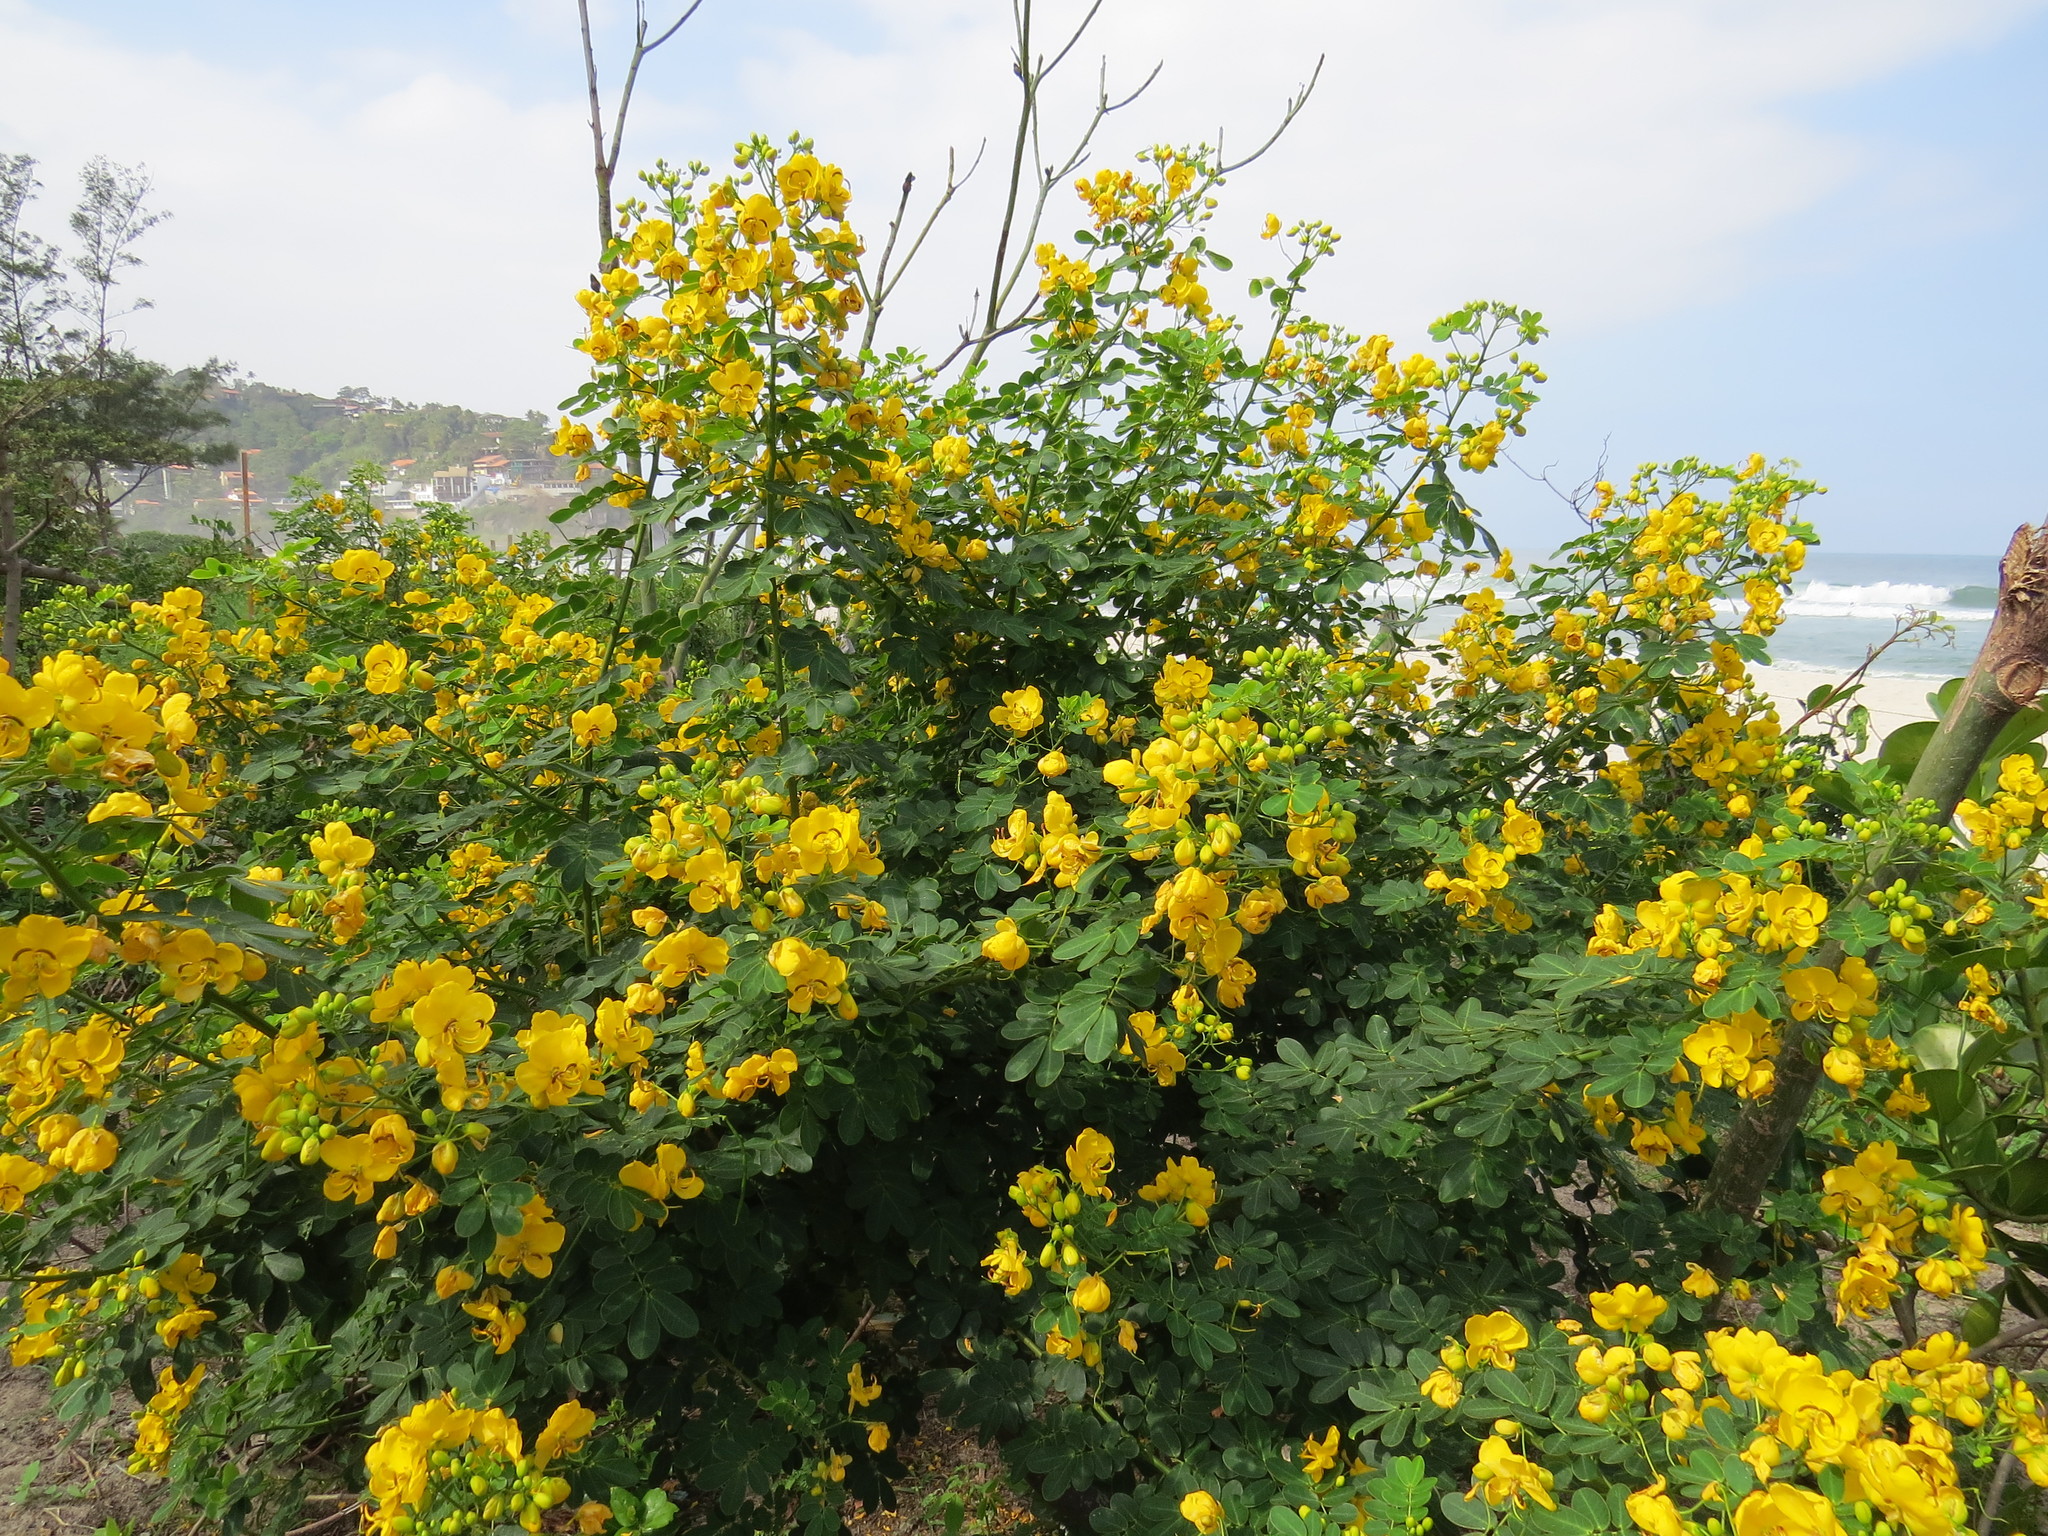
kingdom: Plantae
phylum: Tracheophyta
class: Magnoliopsida
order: Fabales
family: Fabaceae
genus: Senna
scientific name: Senna pendula
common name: Easter cassia
